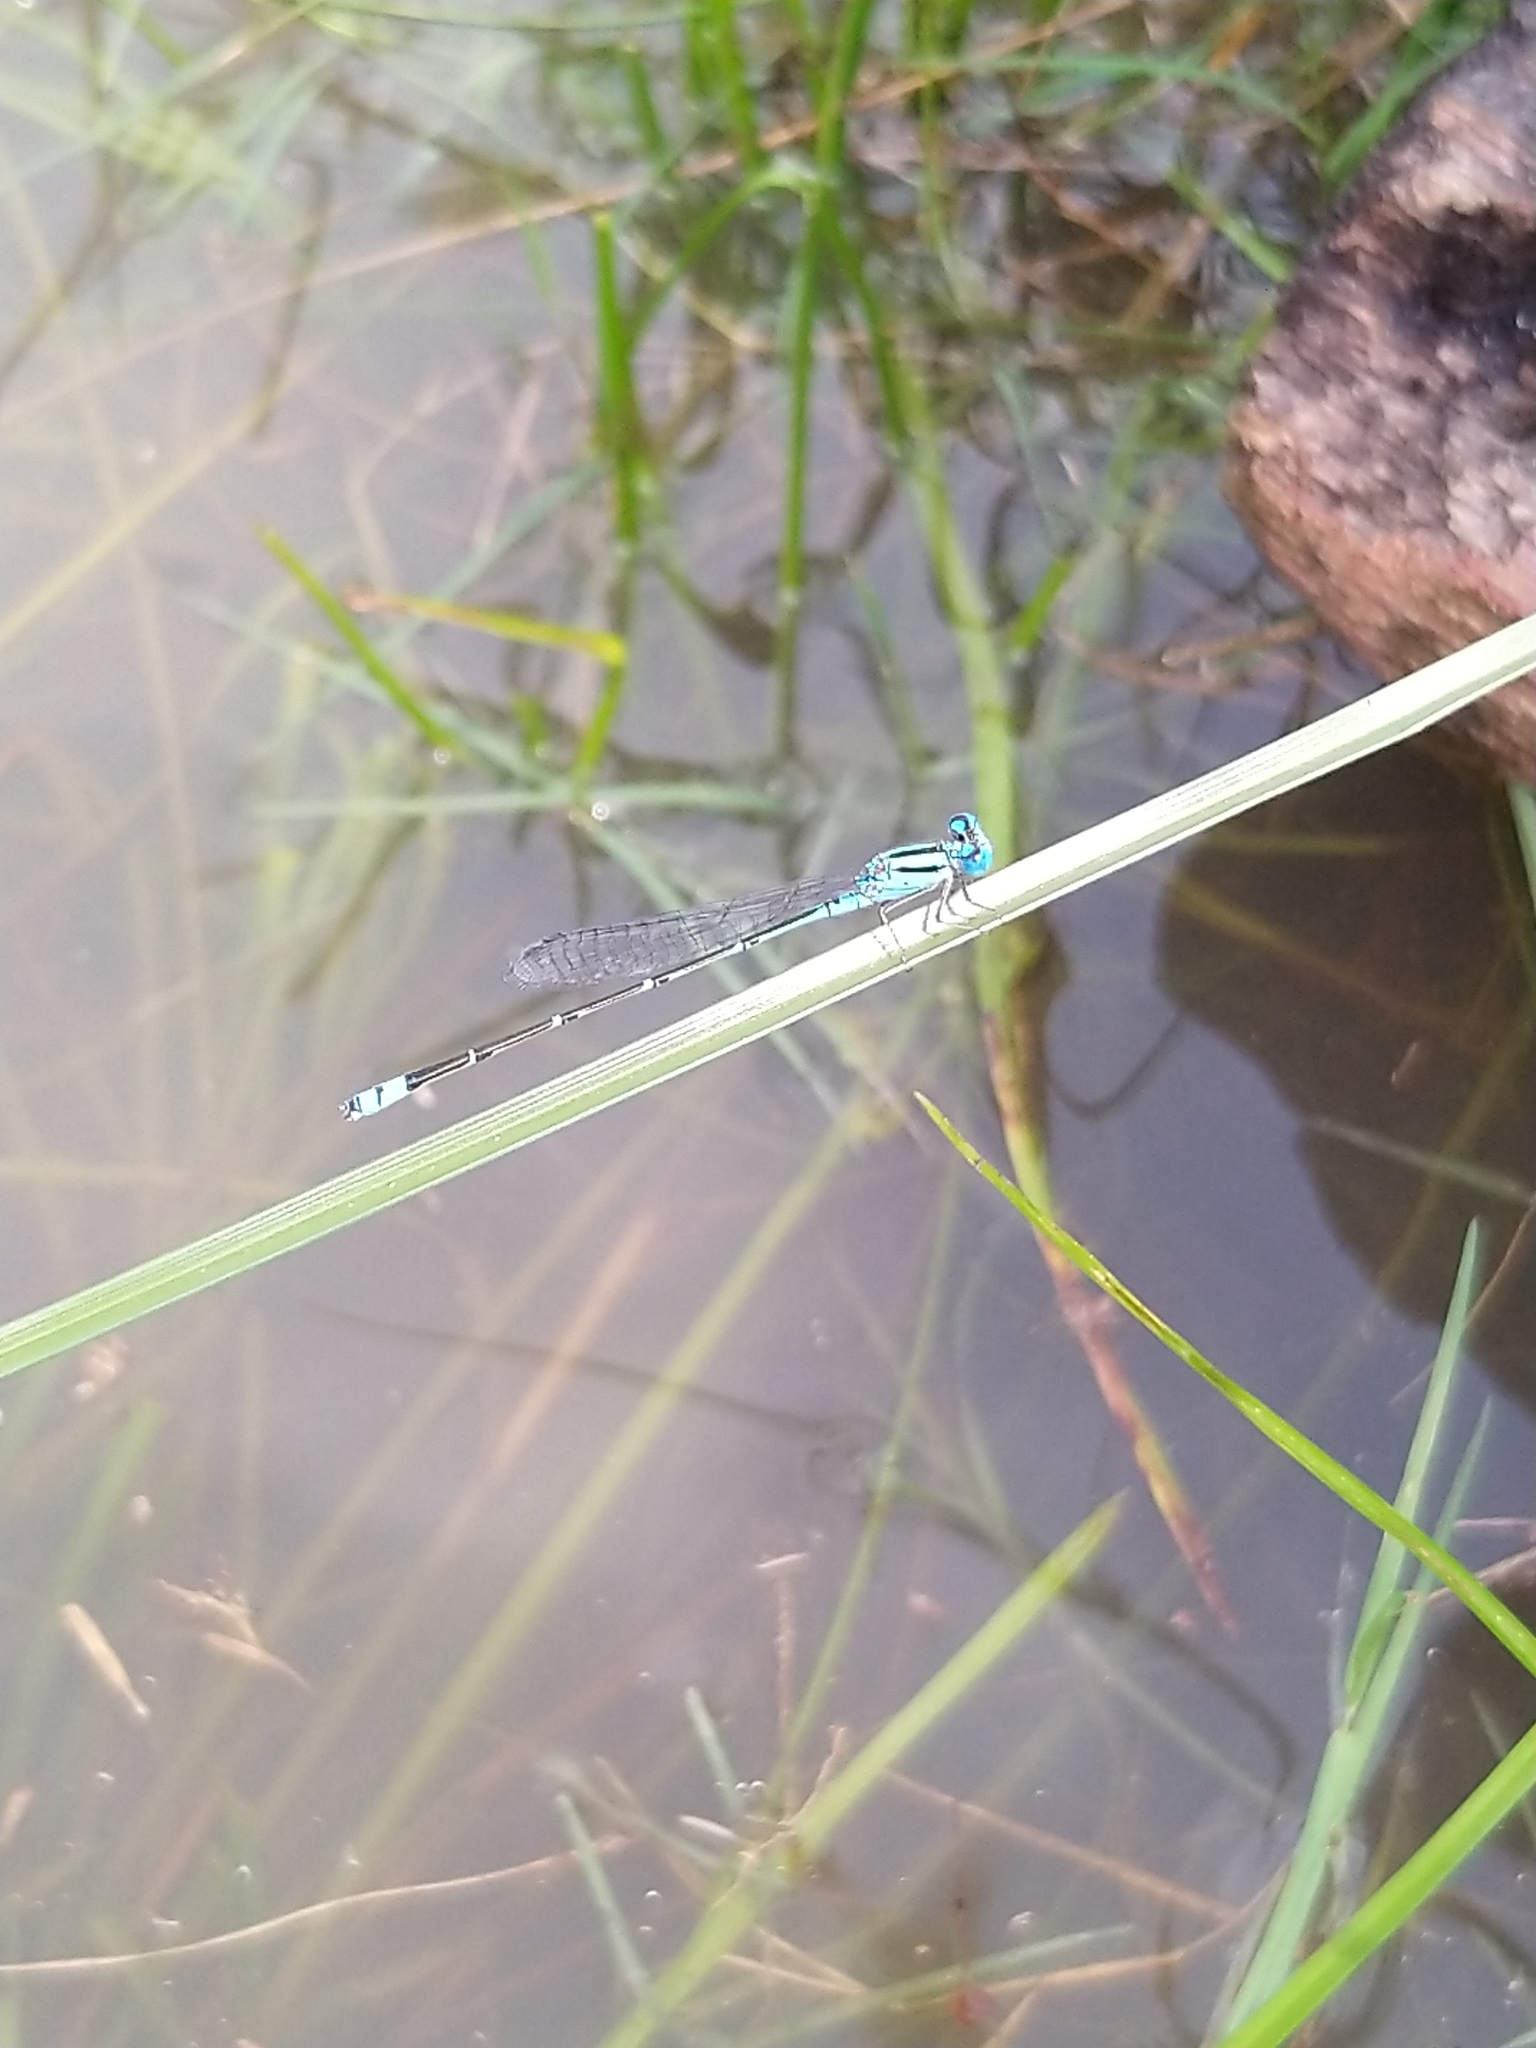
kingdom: Animalia
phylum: Arthropoda
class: Insecta
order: Odonata
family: Coenagrionidae
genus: Pseudagrion
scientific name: Pseudagrion microcephalum
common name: Blue riverdamsel
